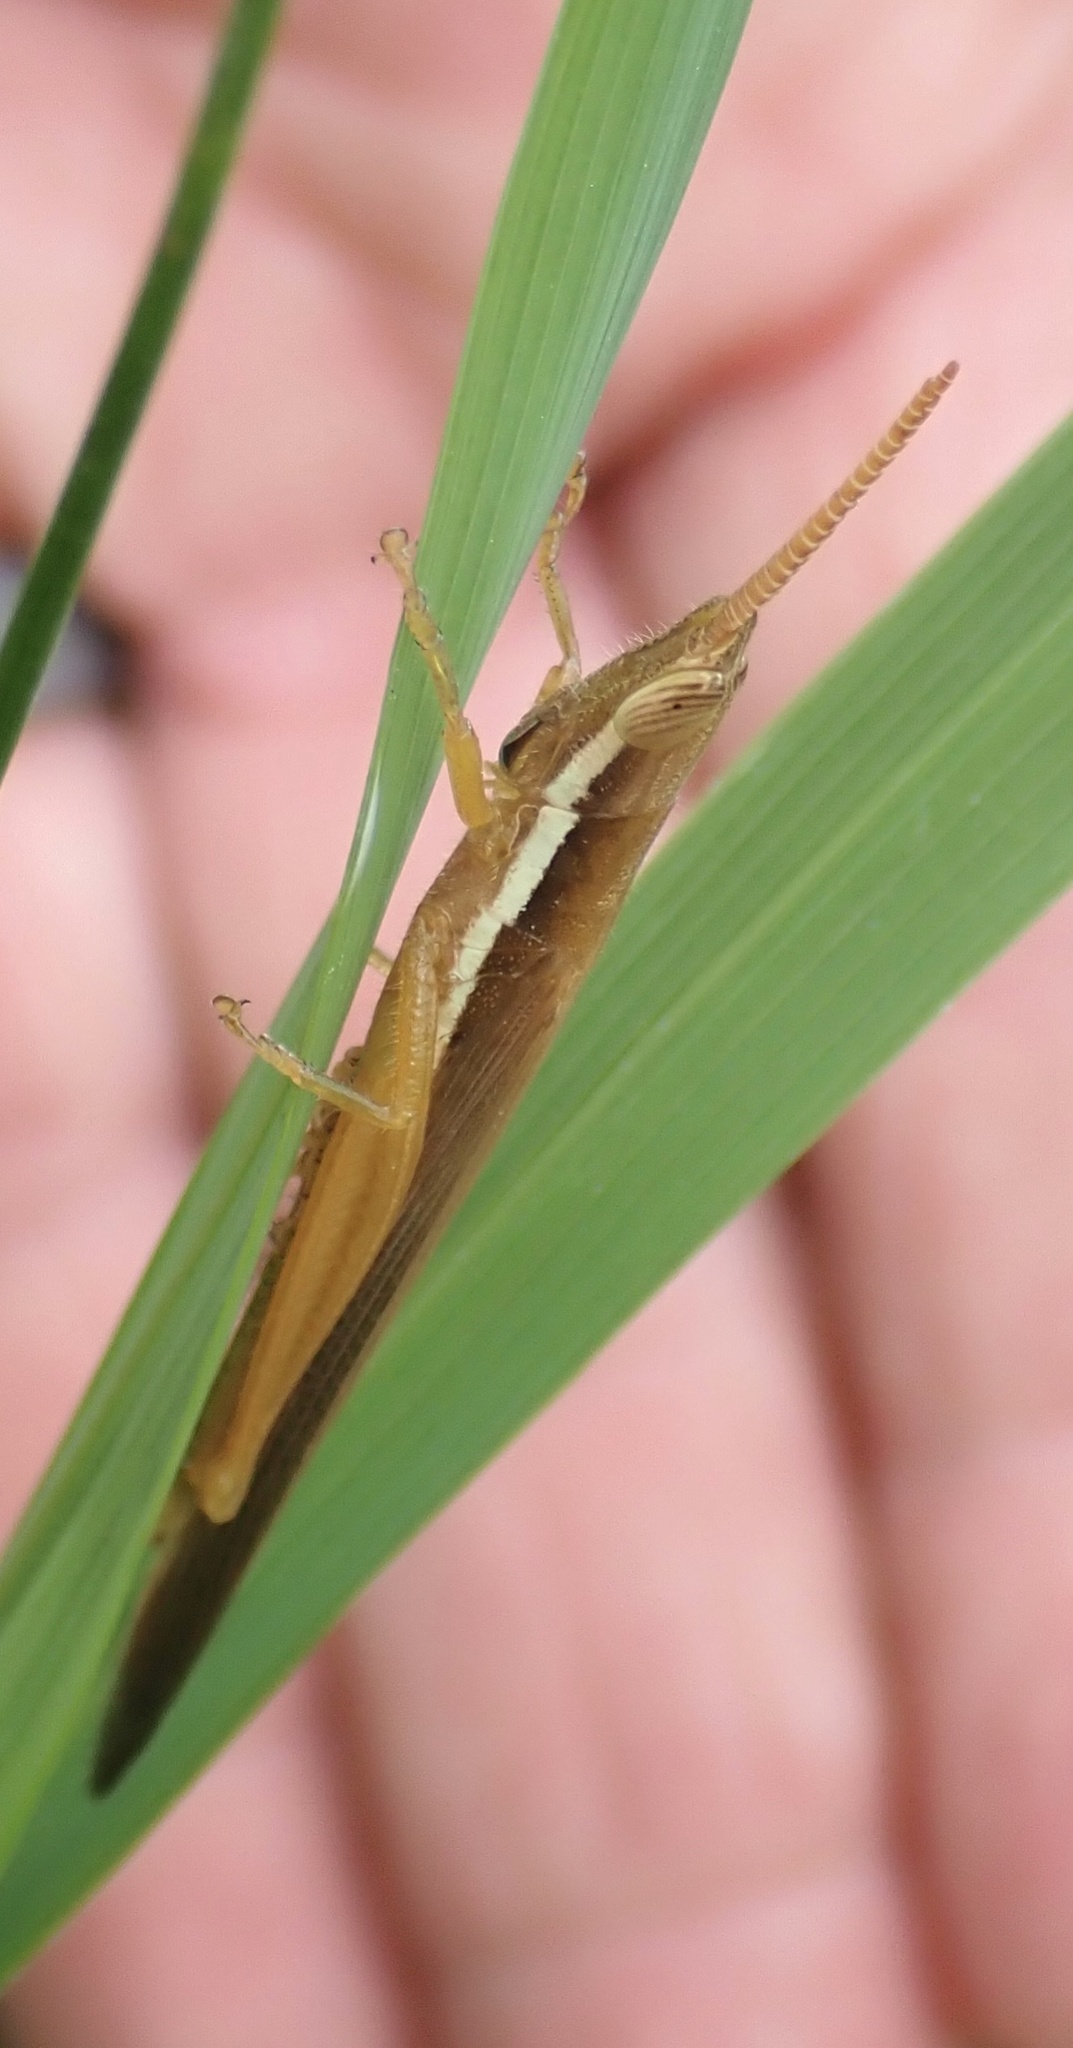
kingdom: Animalia
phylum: Arthropoda
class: Insecta
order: Orthoptera
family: Acrididae
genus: Leptysma
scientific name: Leptysma marginicollis
